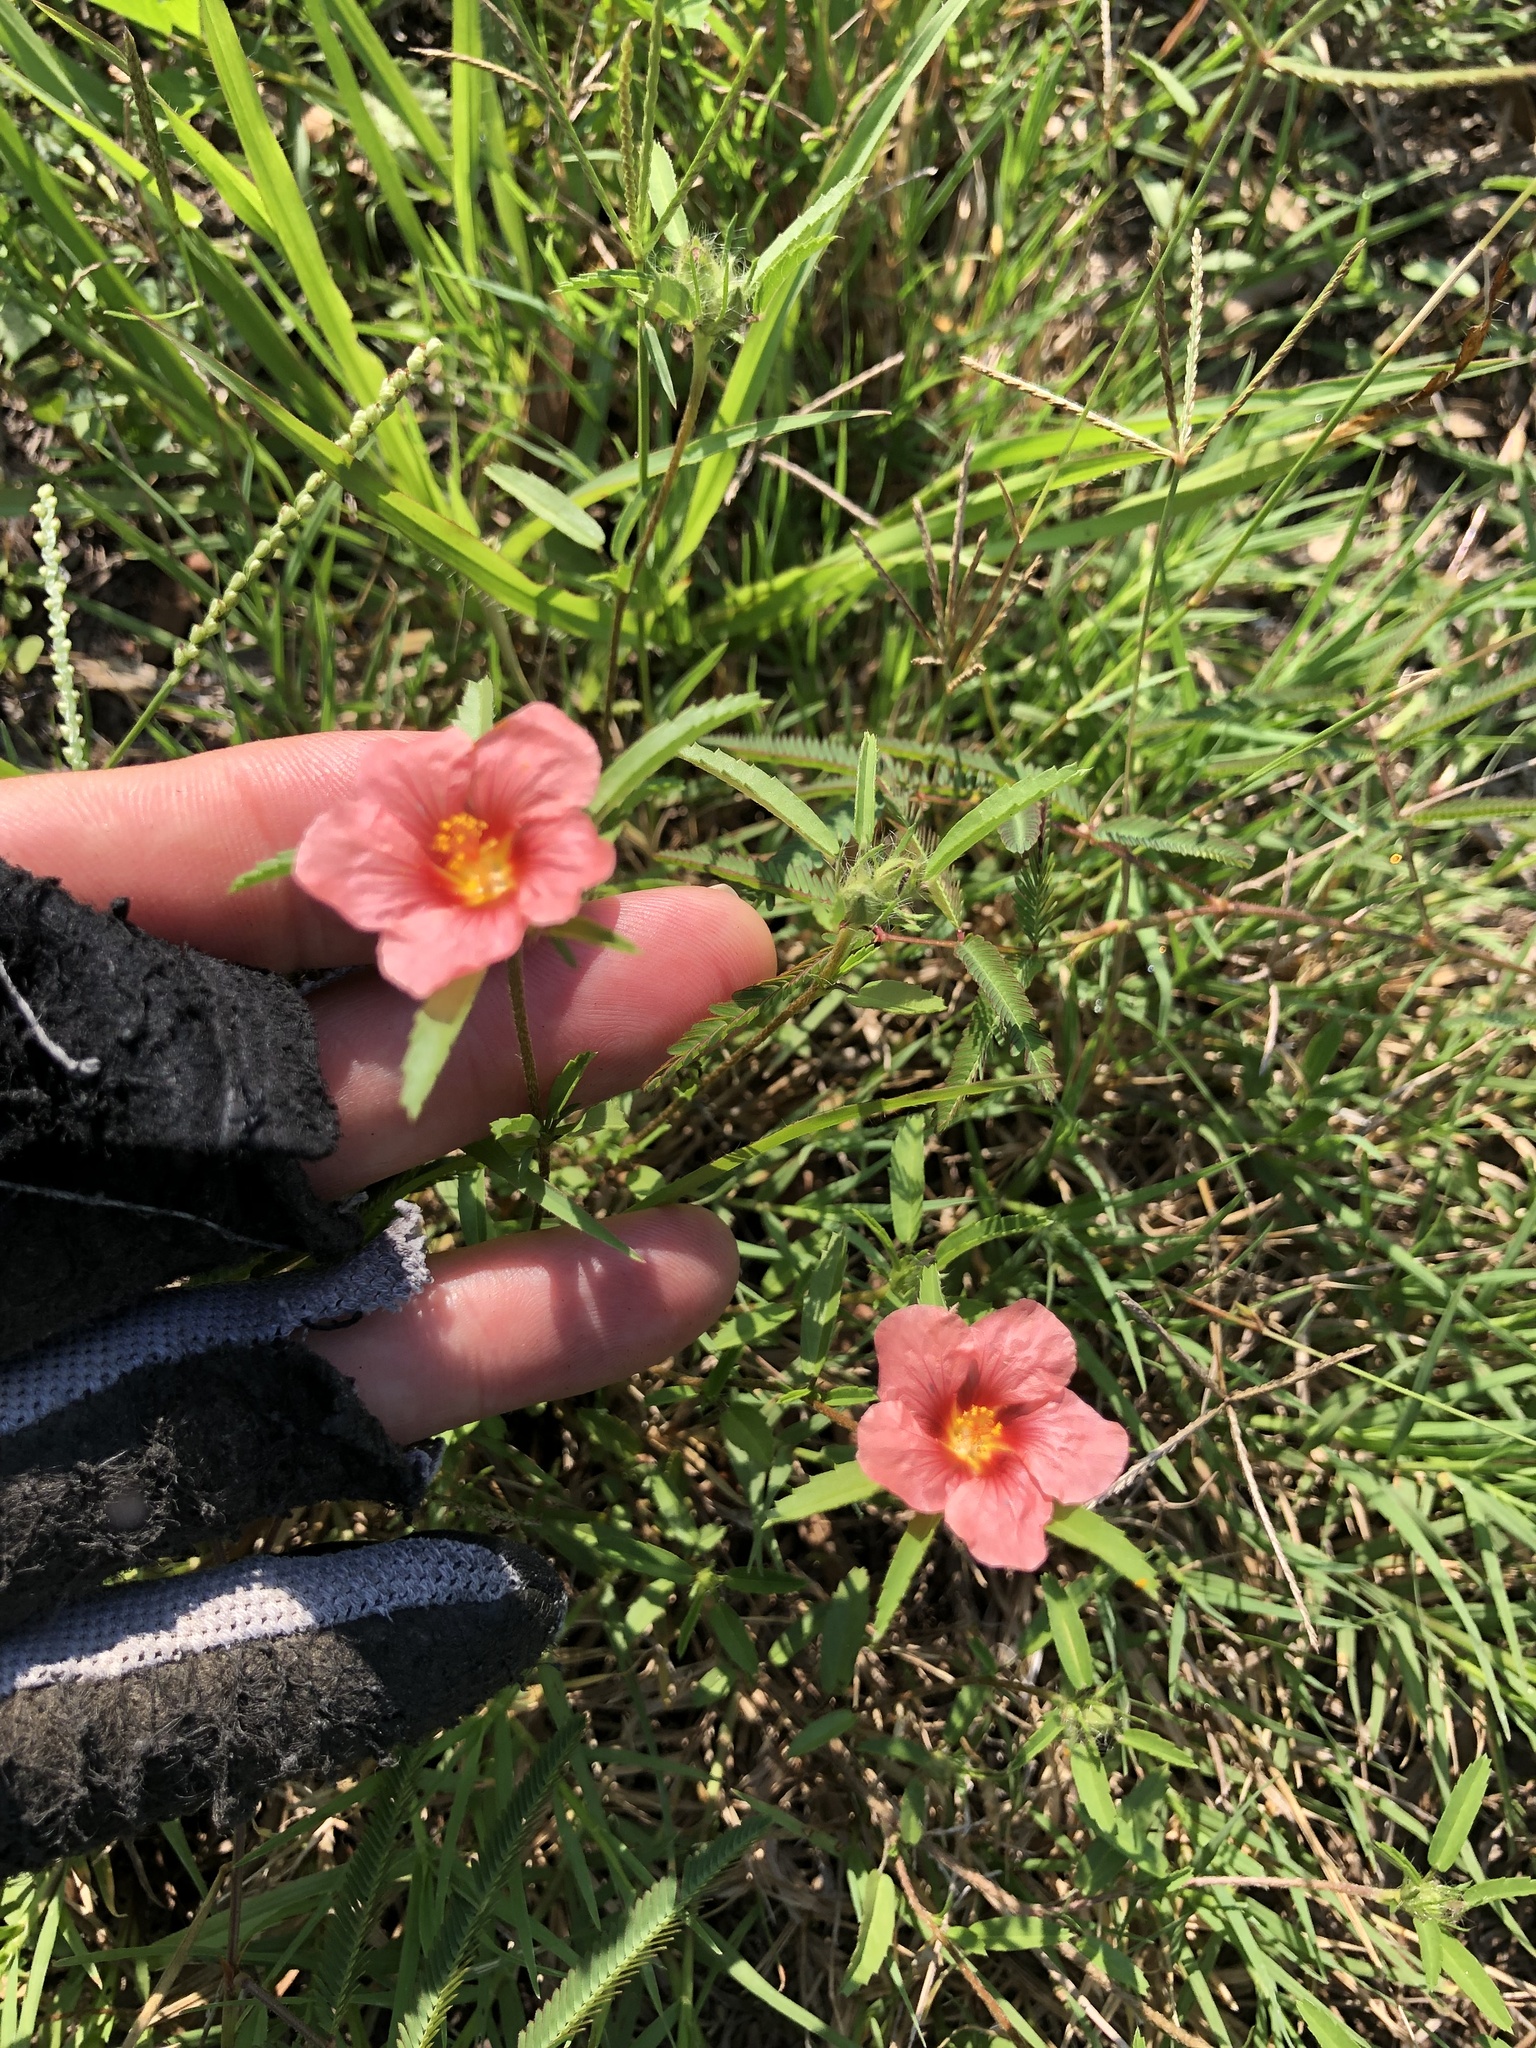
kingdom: Plantae
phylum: Tracheophyta
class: Magnoliopsida
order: Malvales
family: Malvaceae
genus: Sida
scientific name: Sida ciliaris
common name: Bracted fanpetals
